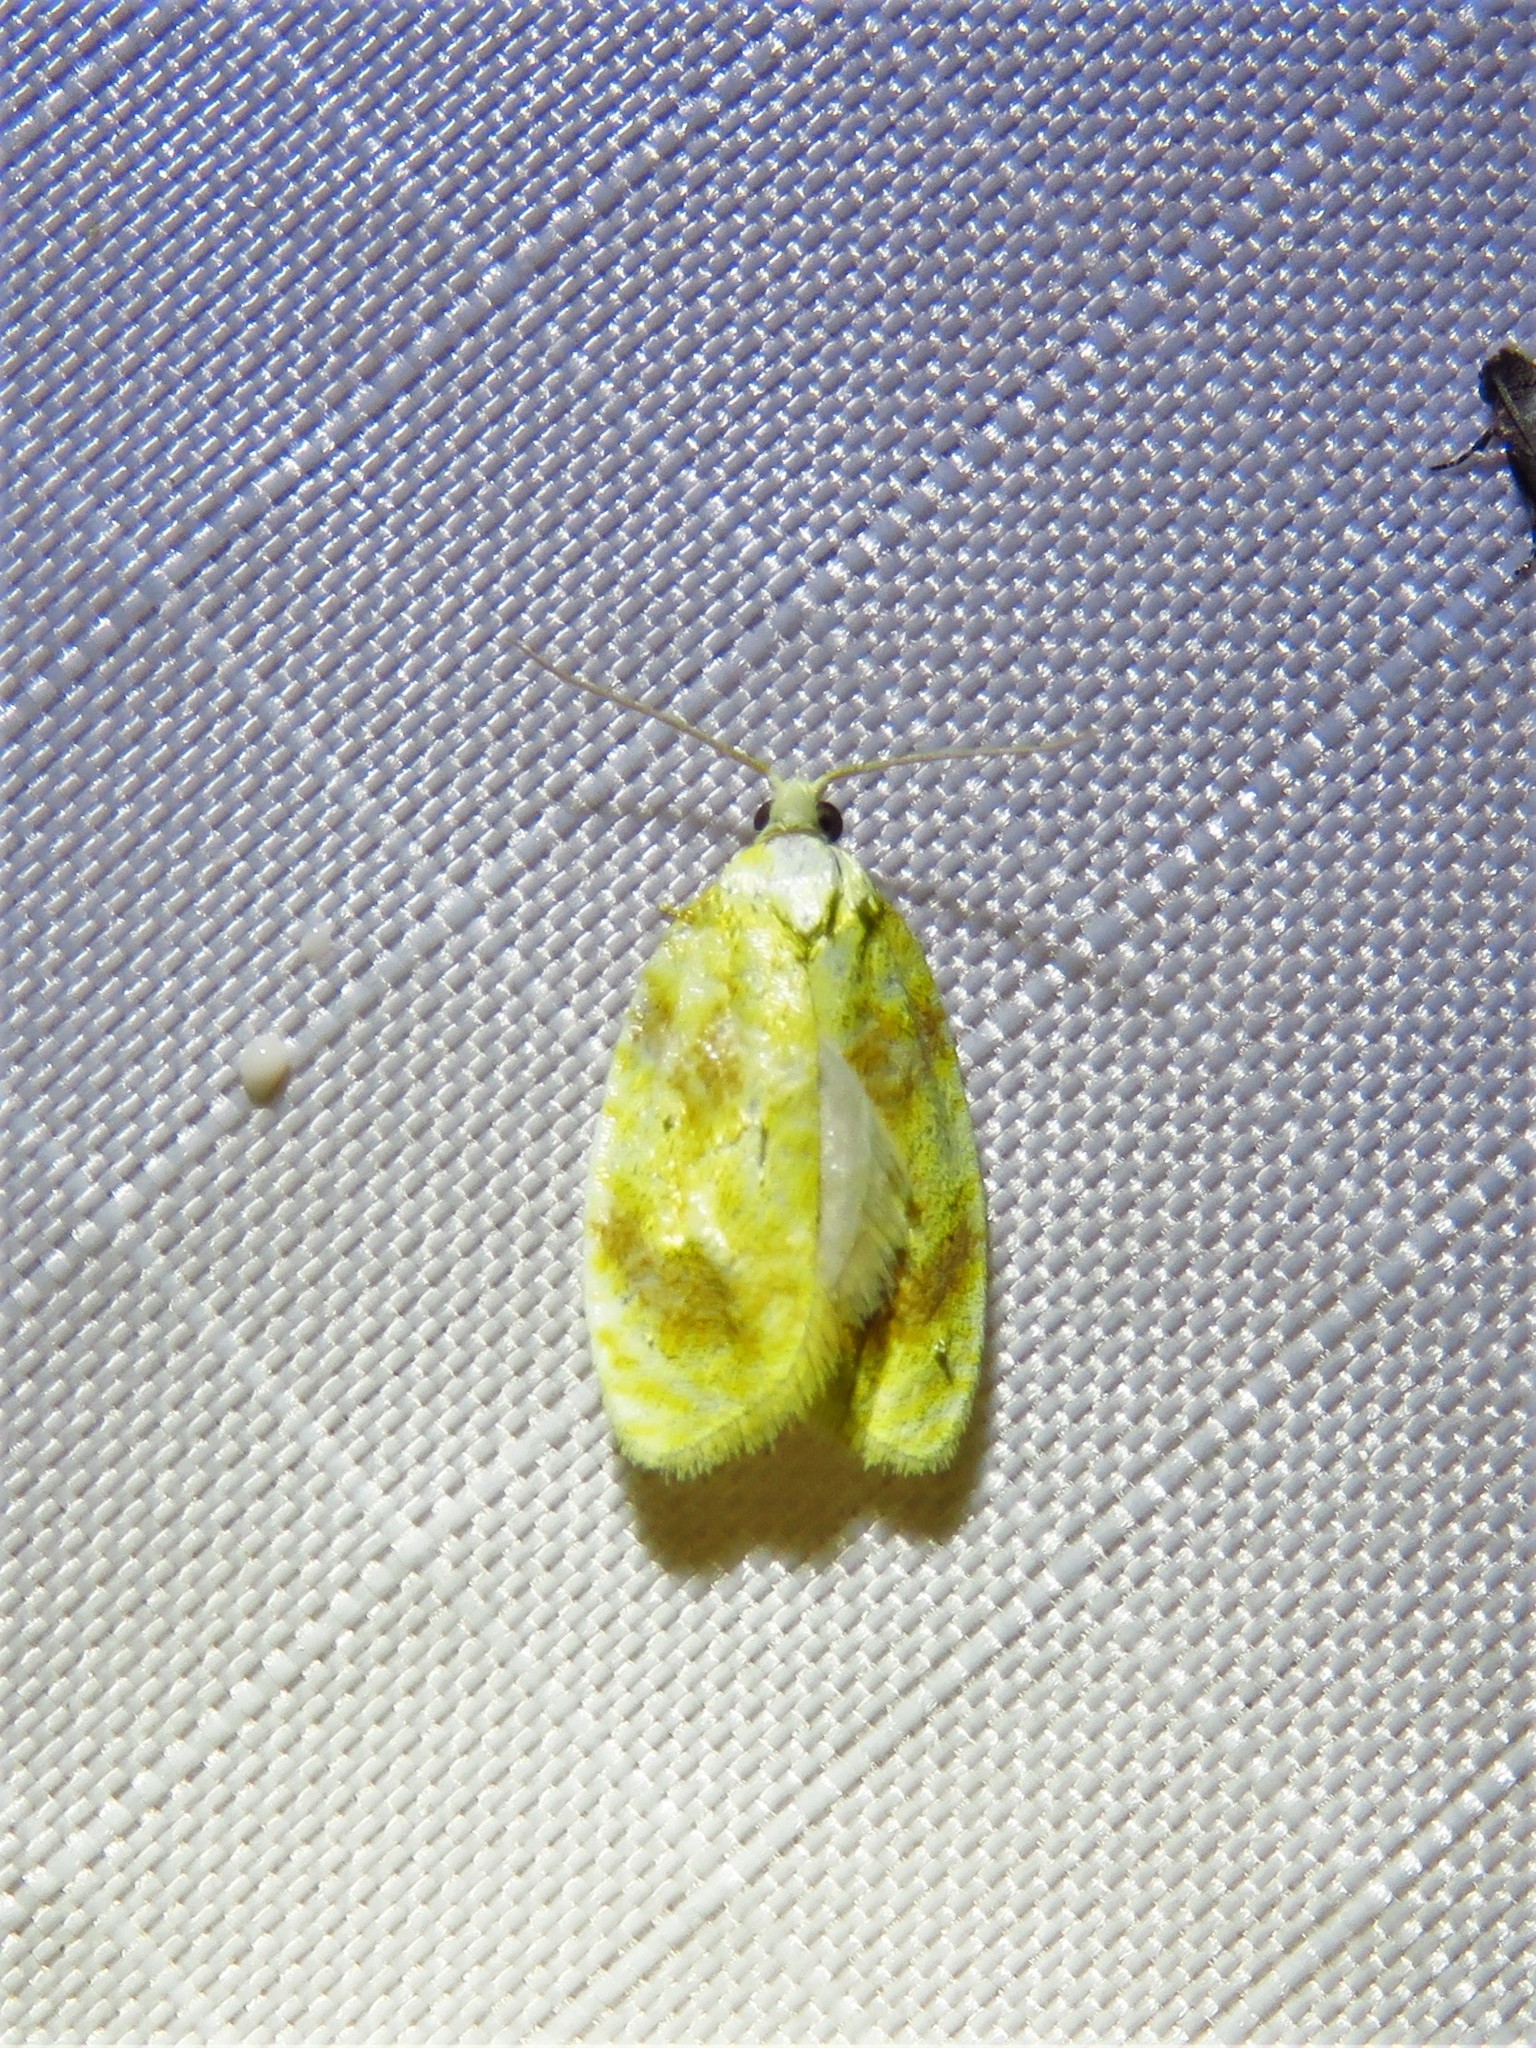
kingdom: Animalia
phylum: Arthropoda
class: Insecta
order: Lepidoptera
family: Tortricidae
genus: Acleris
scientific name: Acleris semipurpurana
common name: Oak leaftier moth
